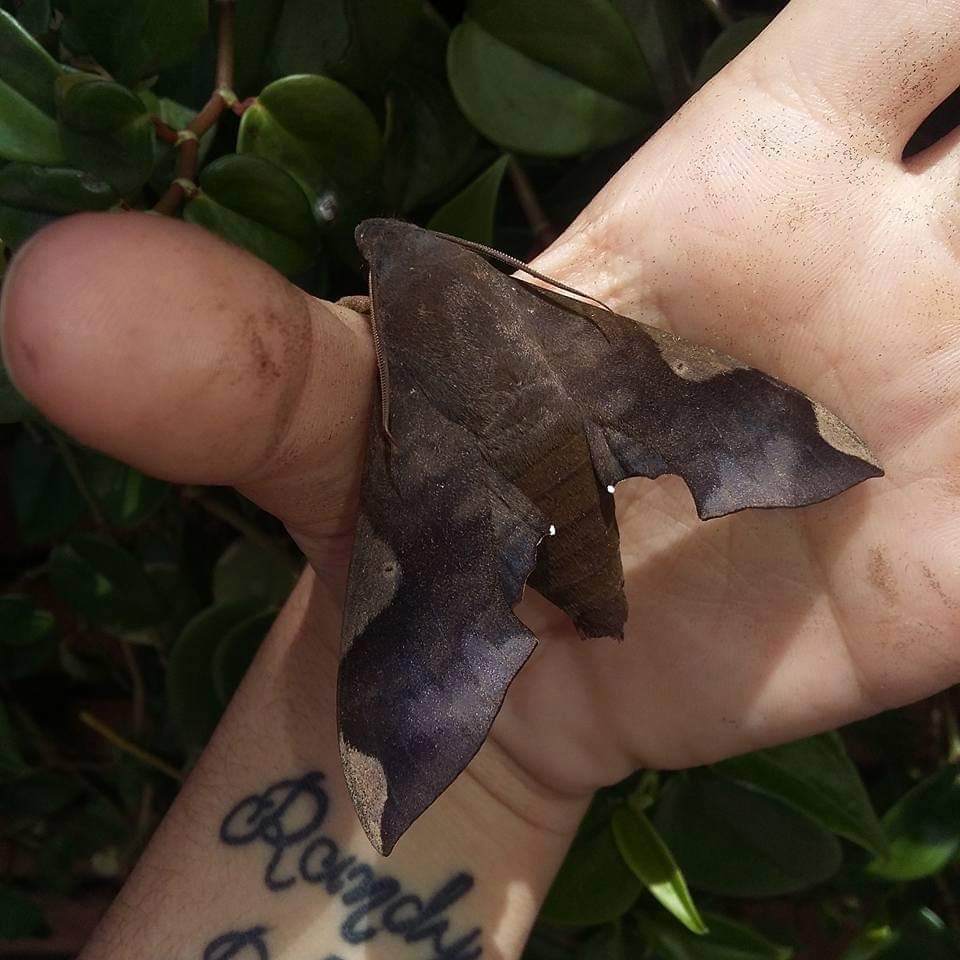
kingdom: Animalia
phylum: Arthropoda
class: Insecta
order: Lepidoptera
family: Sphingidae
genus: Pachylia
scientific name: Pachylia syces
